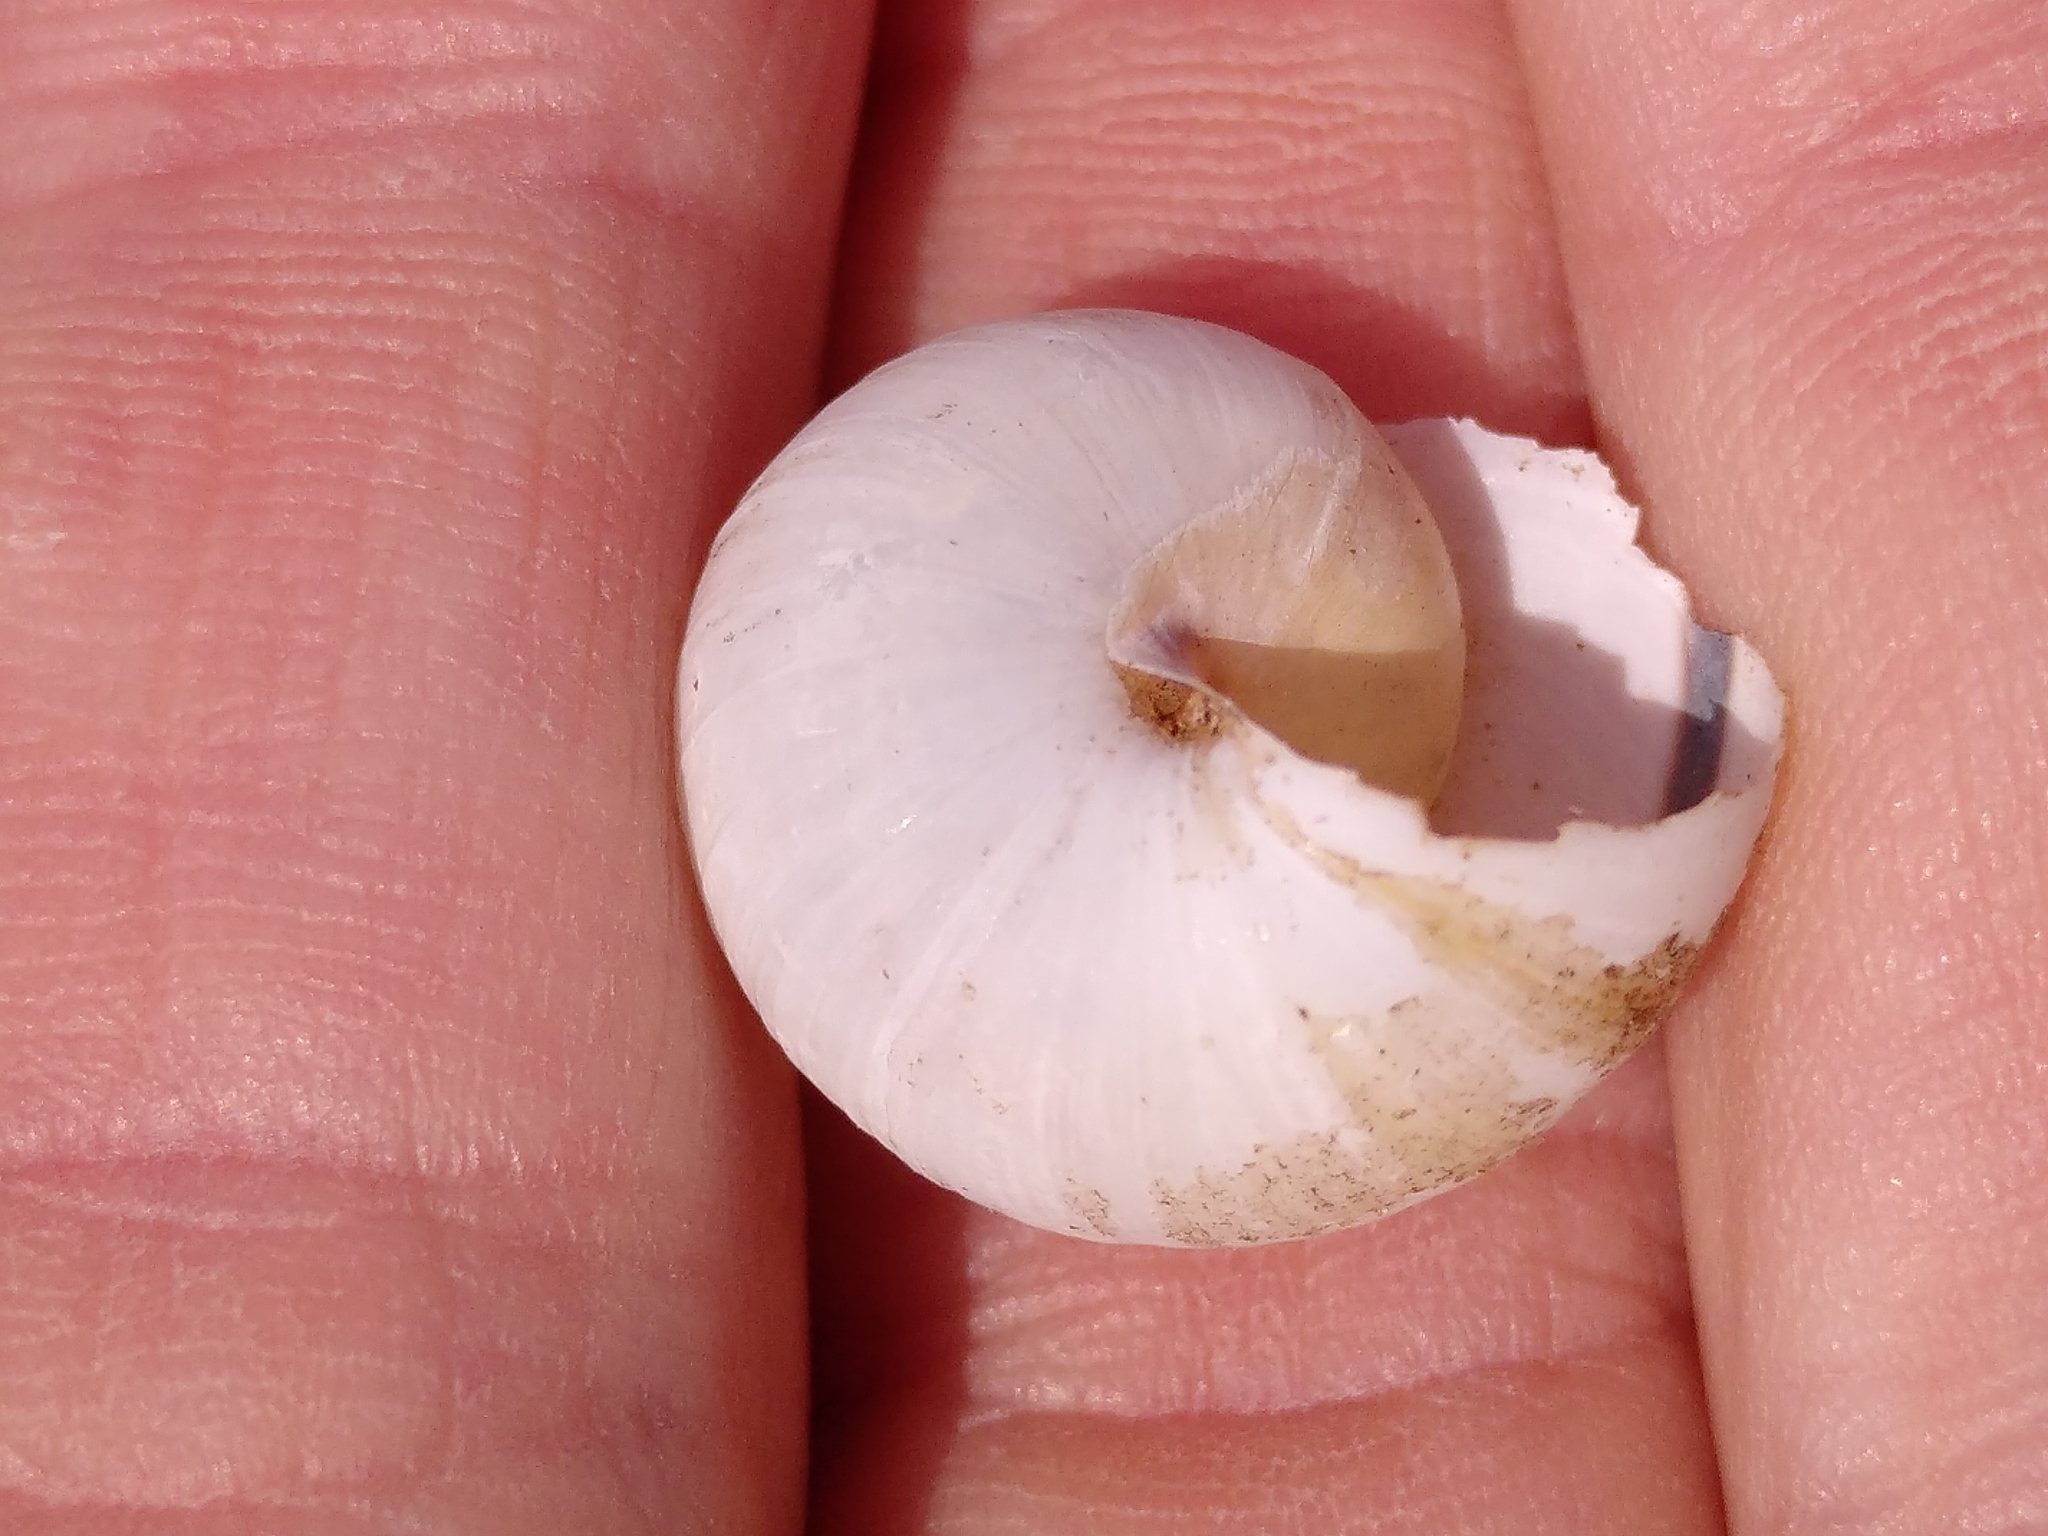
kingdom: Animalia
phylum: Mollusca
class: Gastropoda
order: Stylommatophora
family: Helicidae
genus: Cepaea
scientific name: Cepaea nemoralis
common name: Grovesnail
